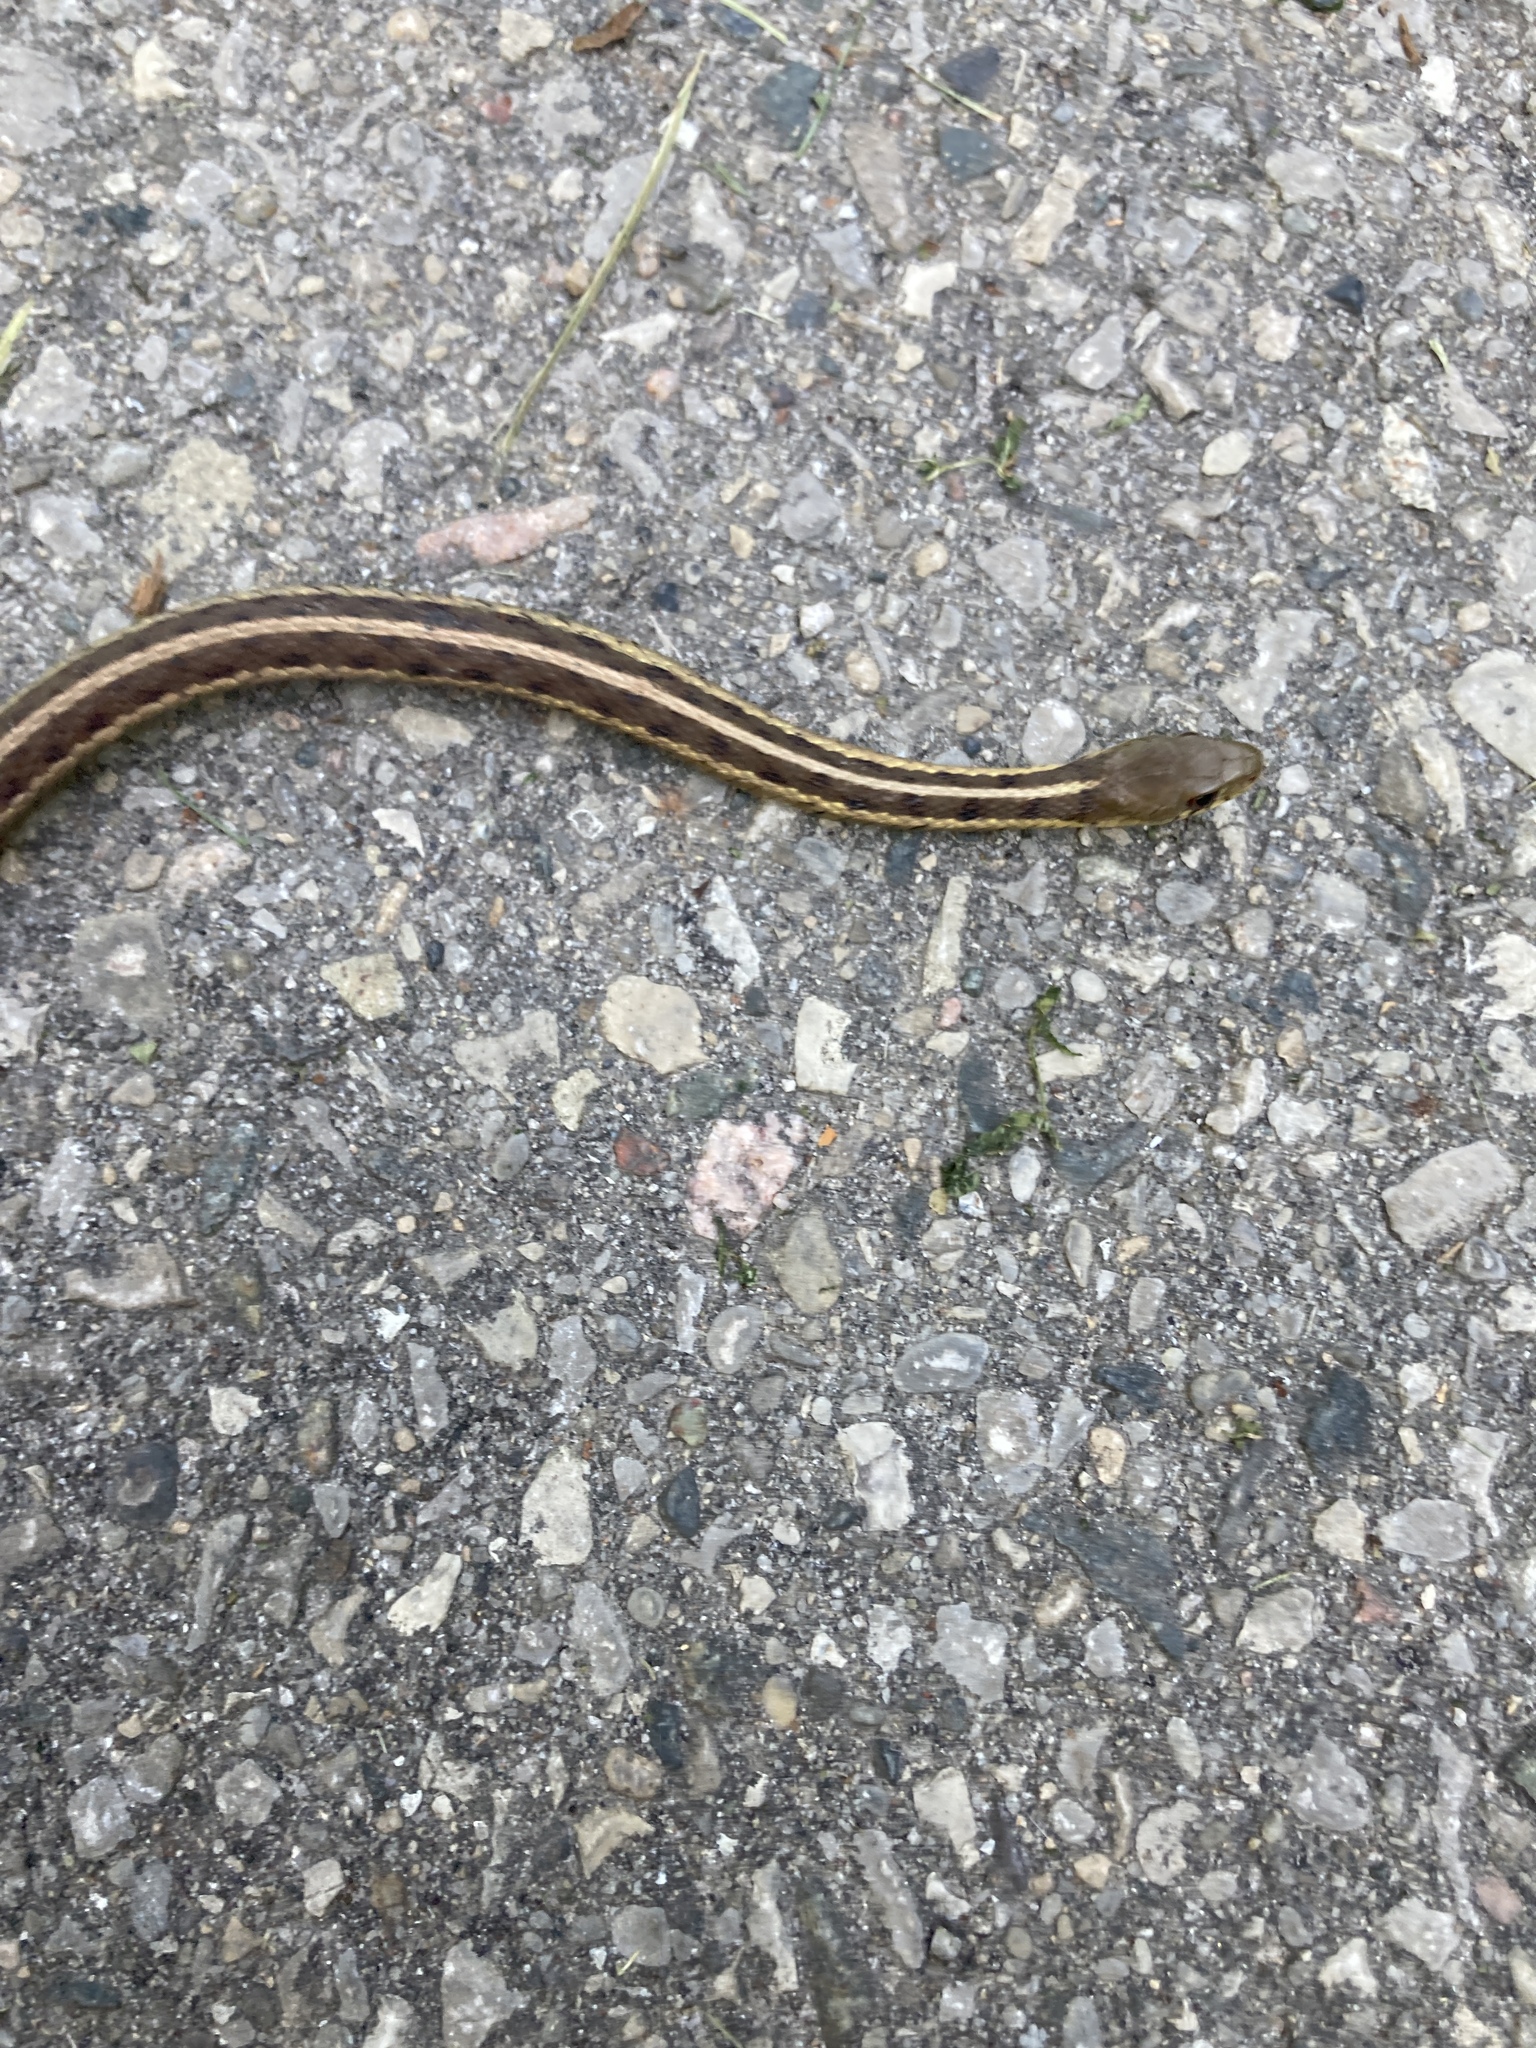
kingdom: Animalia
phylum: Chordata
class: Squamata
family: Colubridae
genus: Thamnophis
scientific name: Thamnophis sirtalis
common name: Common garter snake
